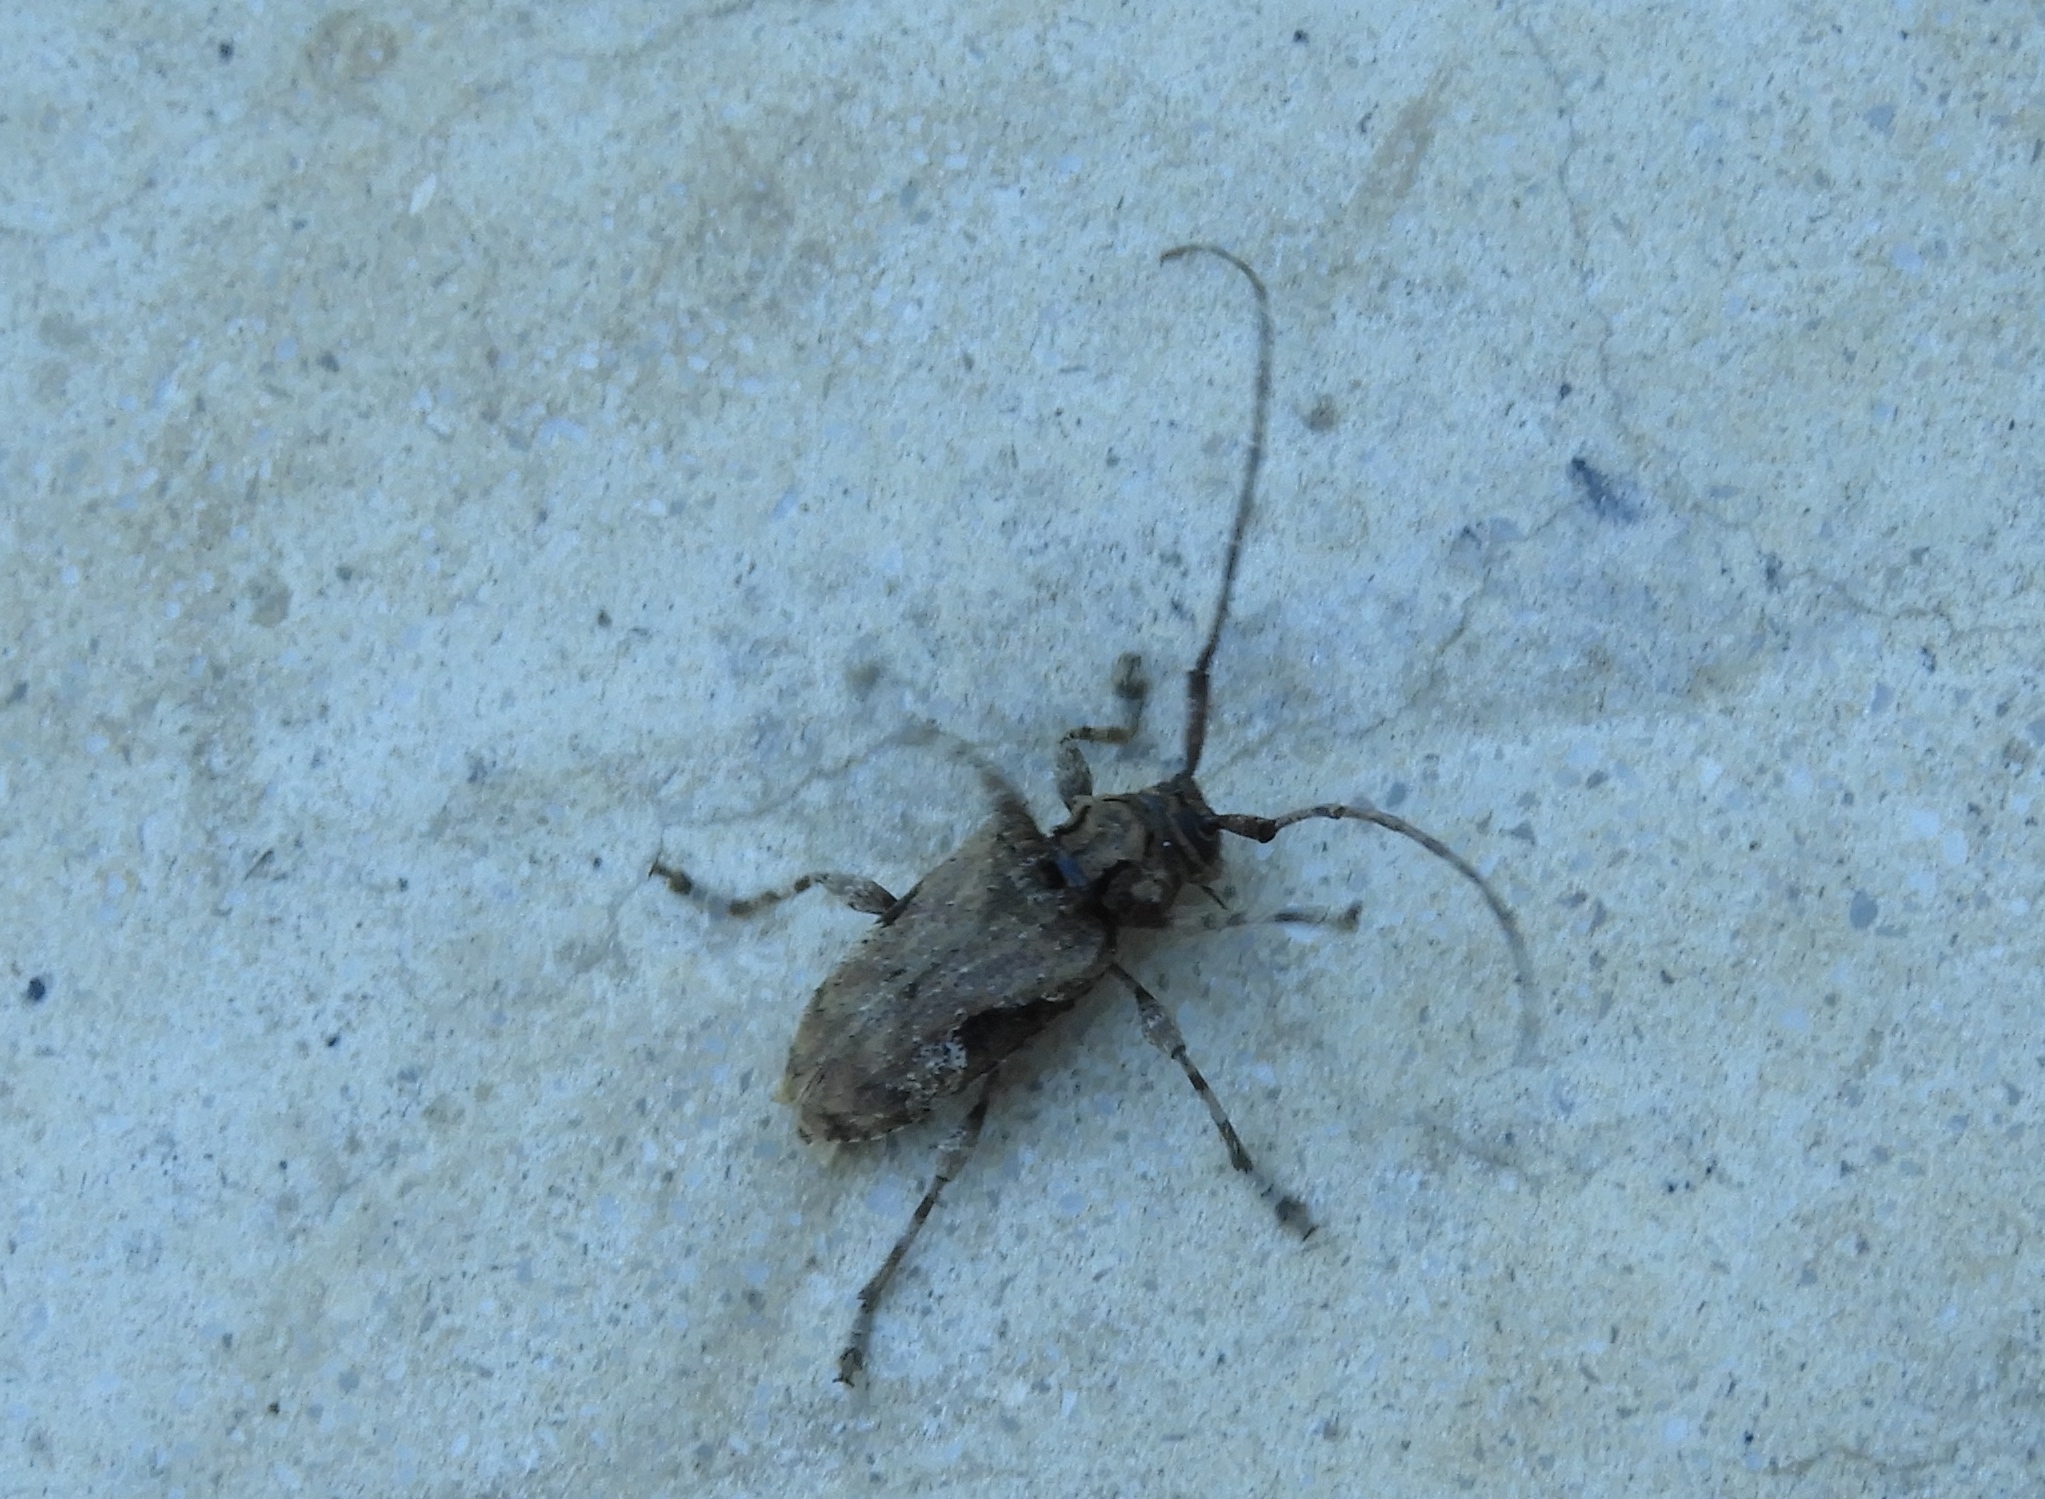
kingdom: Animalia
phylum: Arthropoda
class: Insecta
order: Coleoptera
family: Cerambycidae
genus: Lagocheirus
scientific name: Lagocheirus
